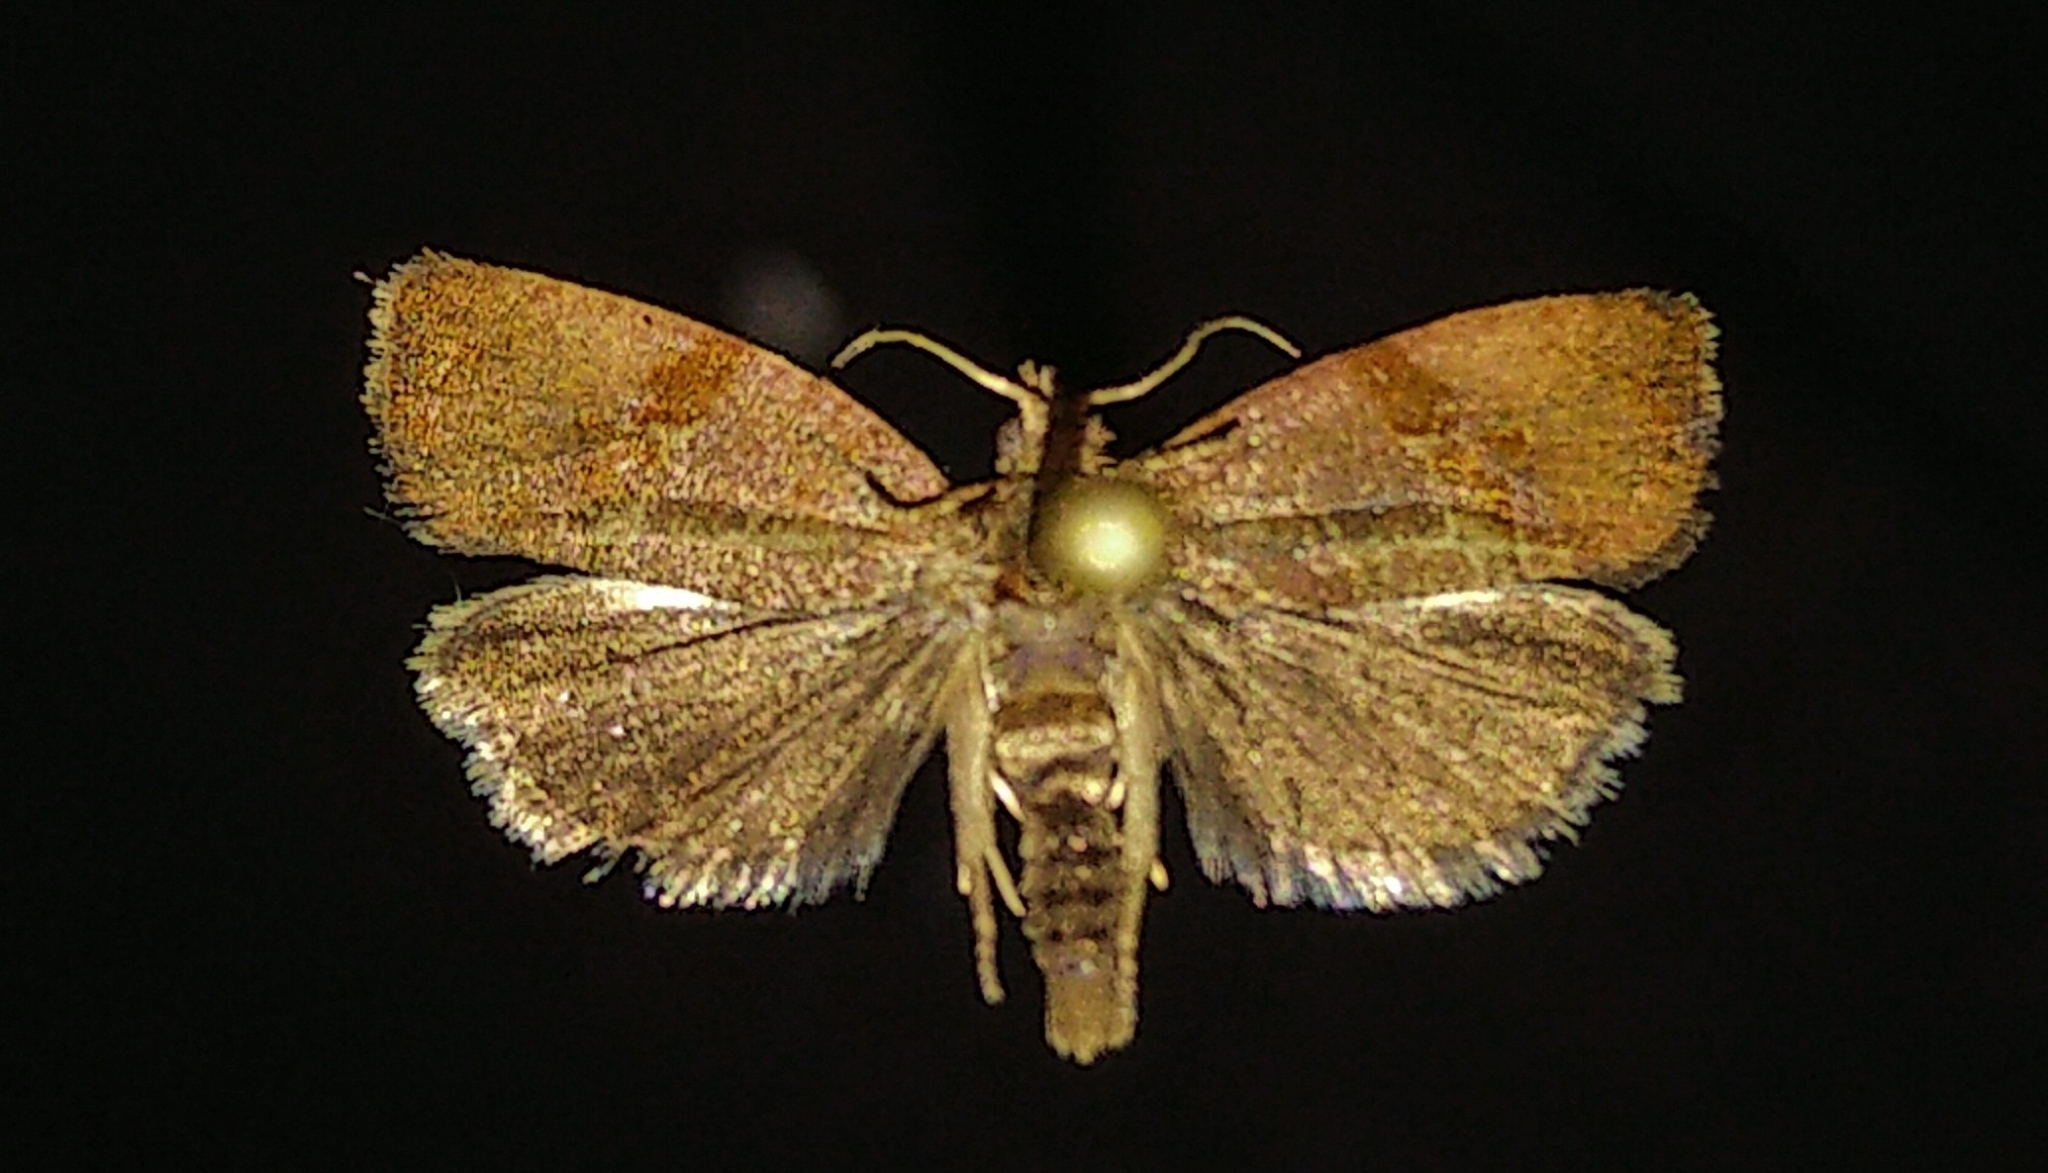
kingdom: Animalia
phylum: Arthropoda
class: Insecta
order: Lepidoptera
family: Tortricidae
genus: Evora
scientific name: Evora hemidesma
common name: Spirea leaftier moth
